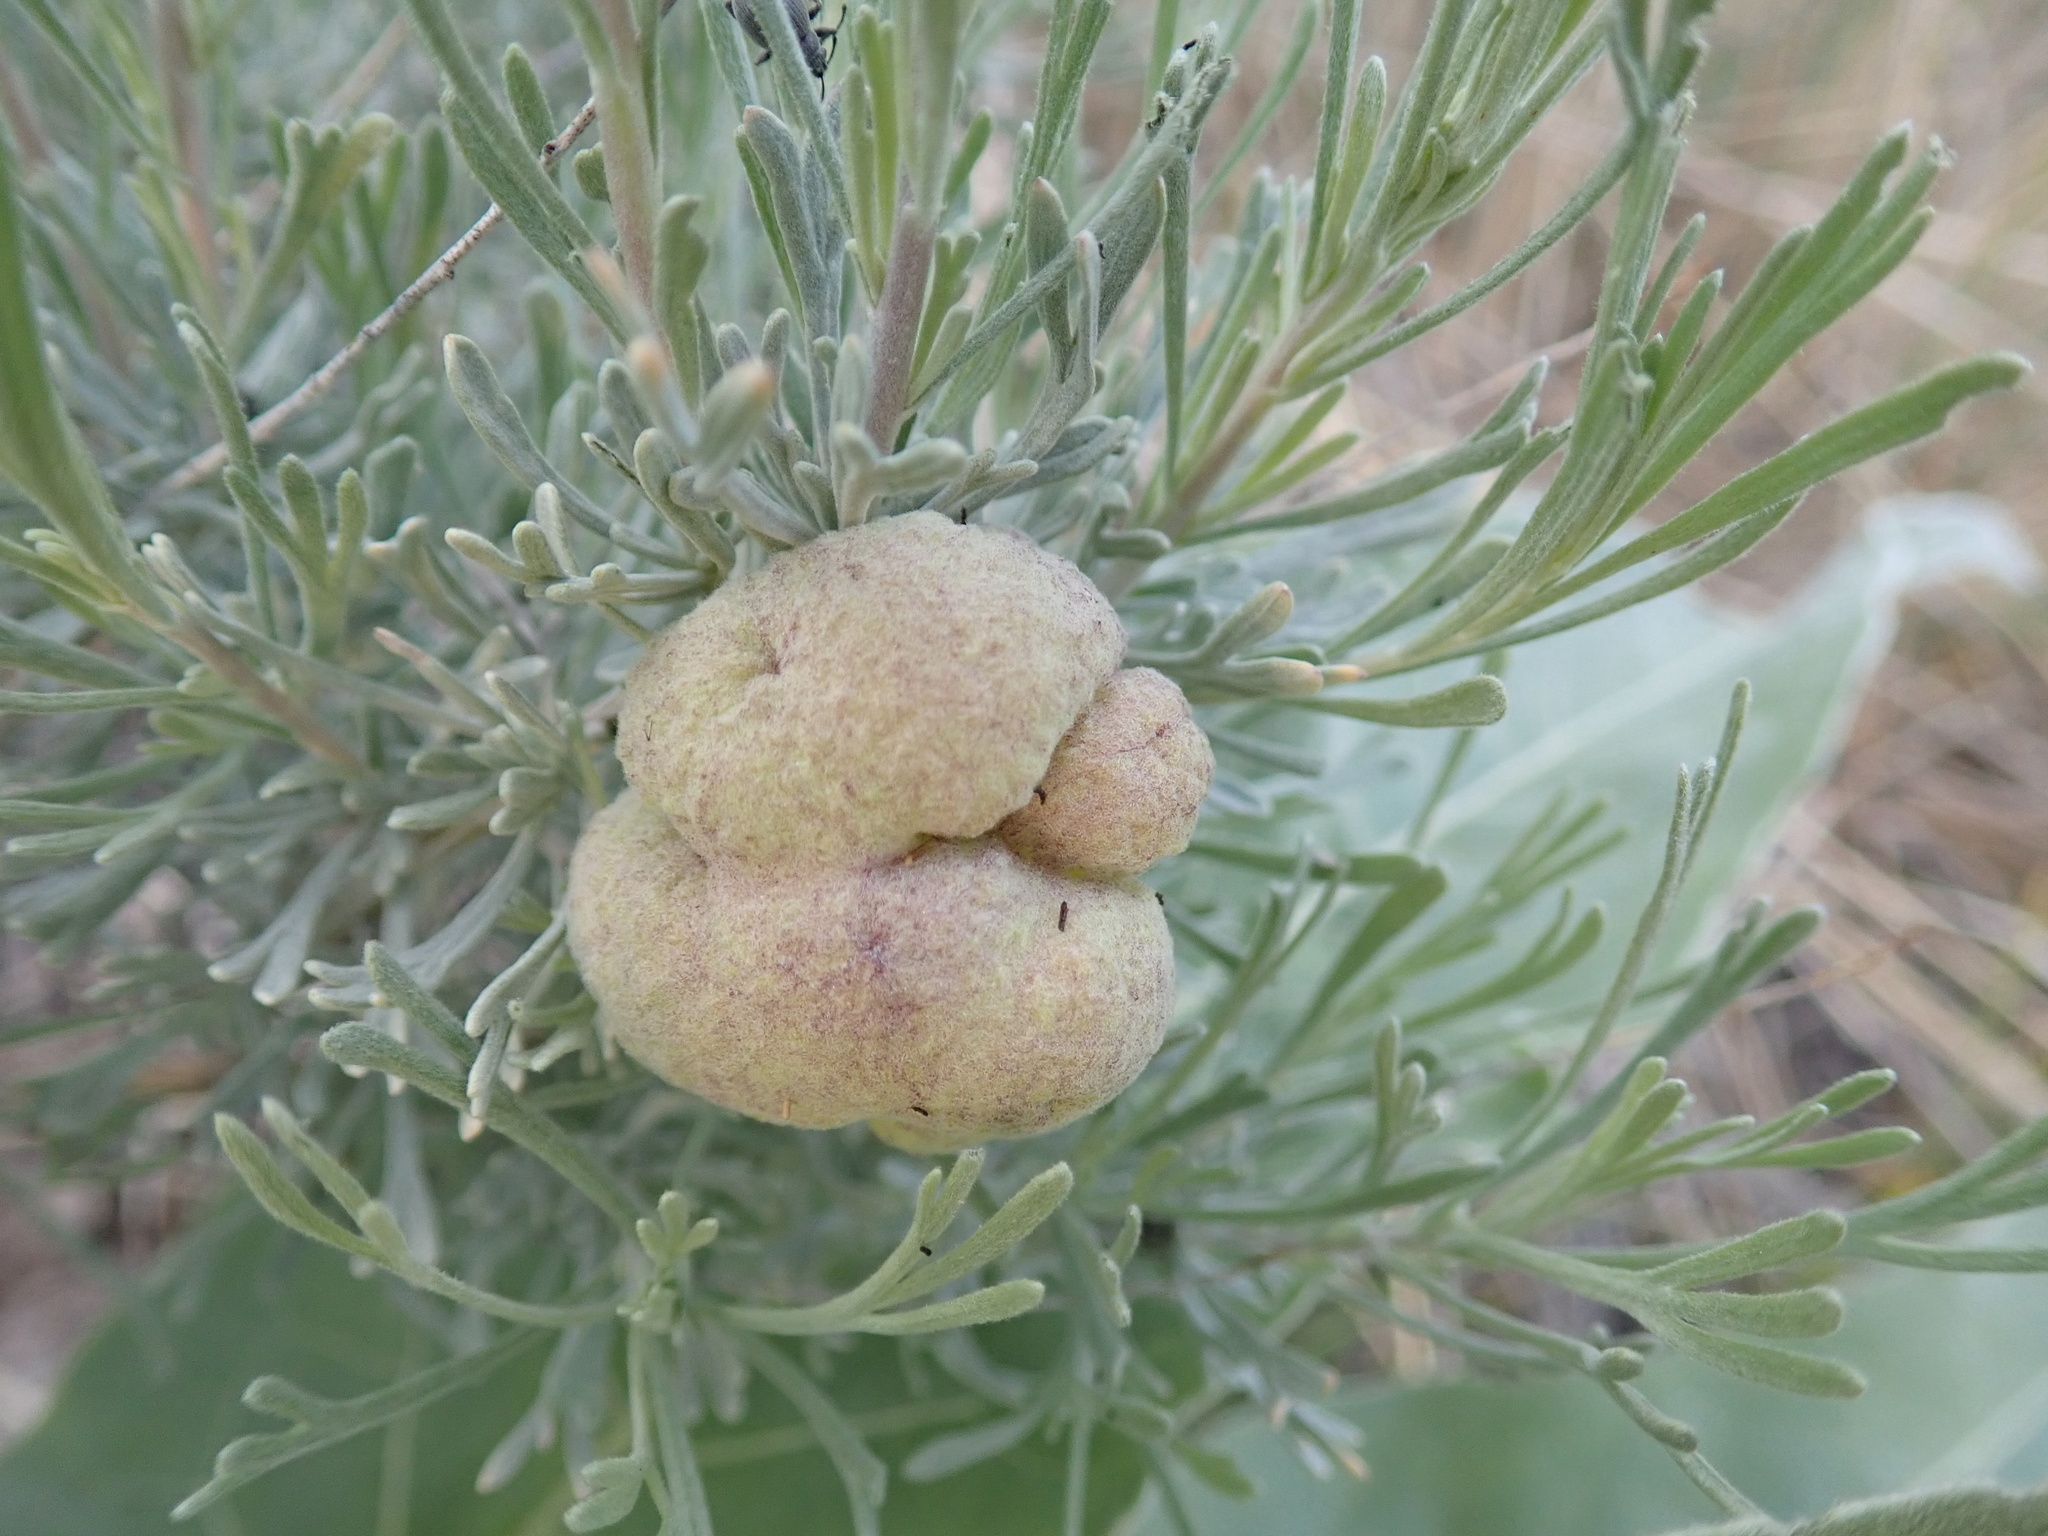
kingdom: Animalia
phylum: Arthropoda
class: Insecta
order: Diptera
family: Cecidomyiidae
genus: Rhopalomyia
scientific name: Rhopalomyia pomum
